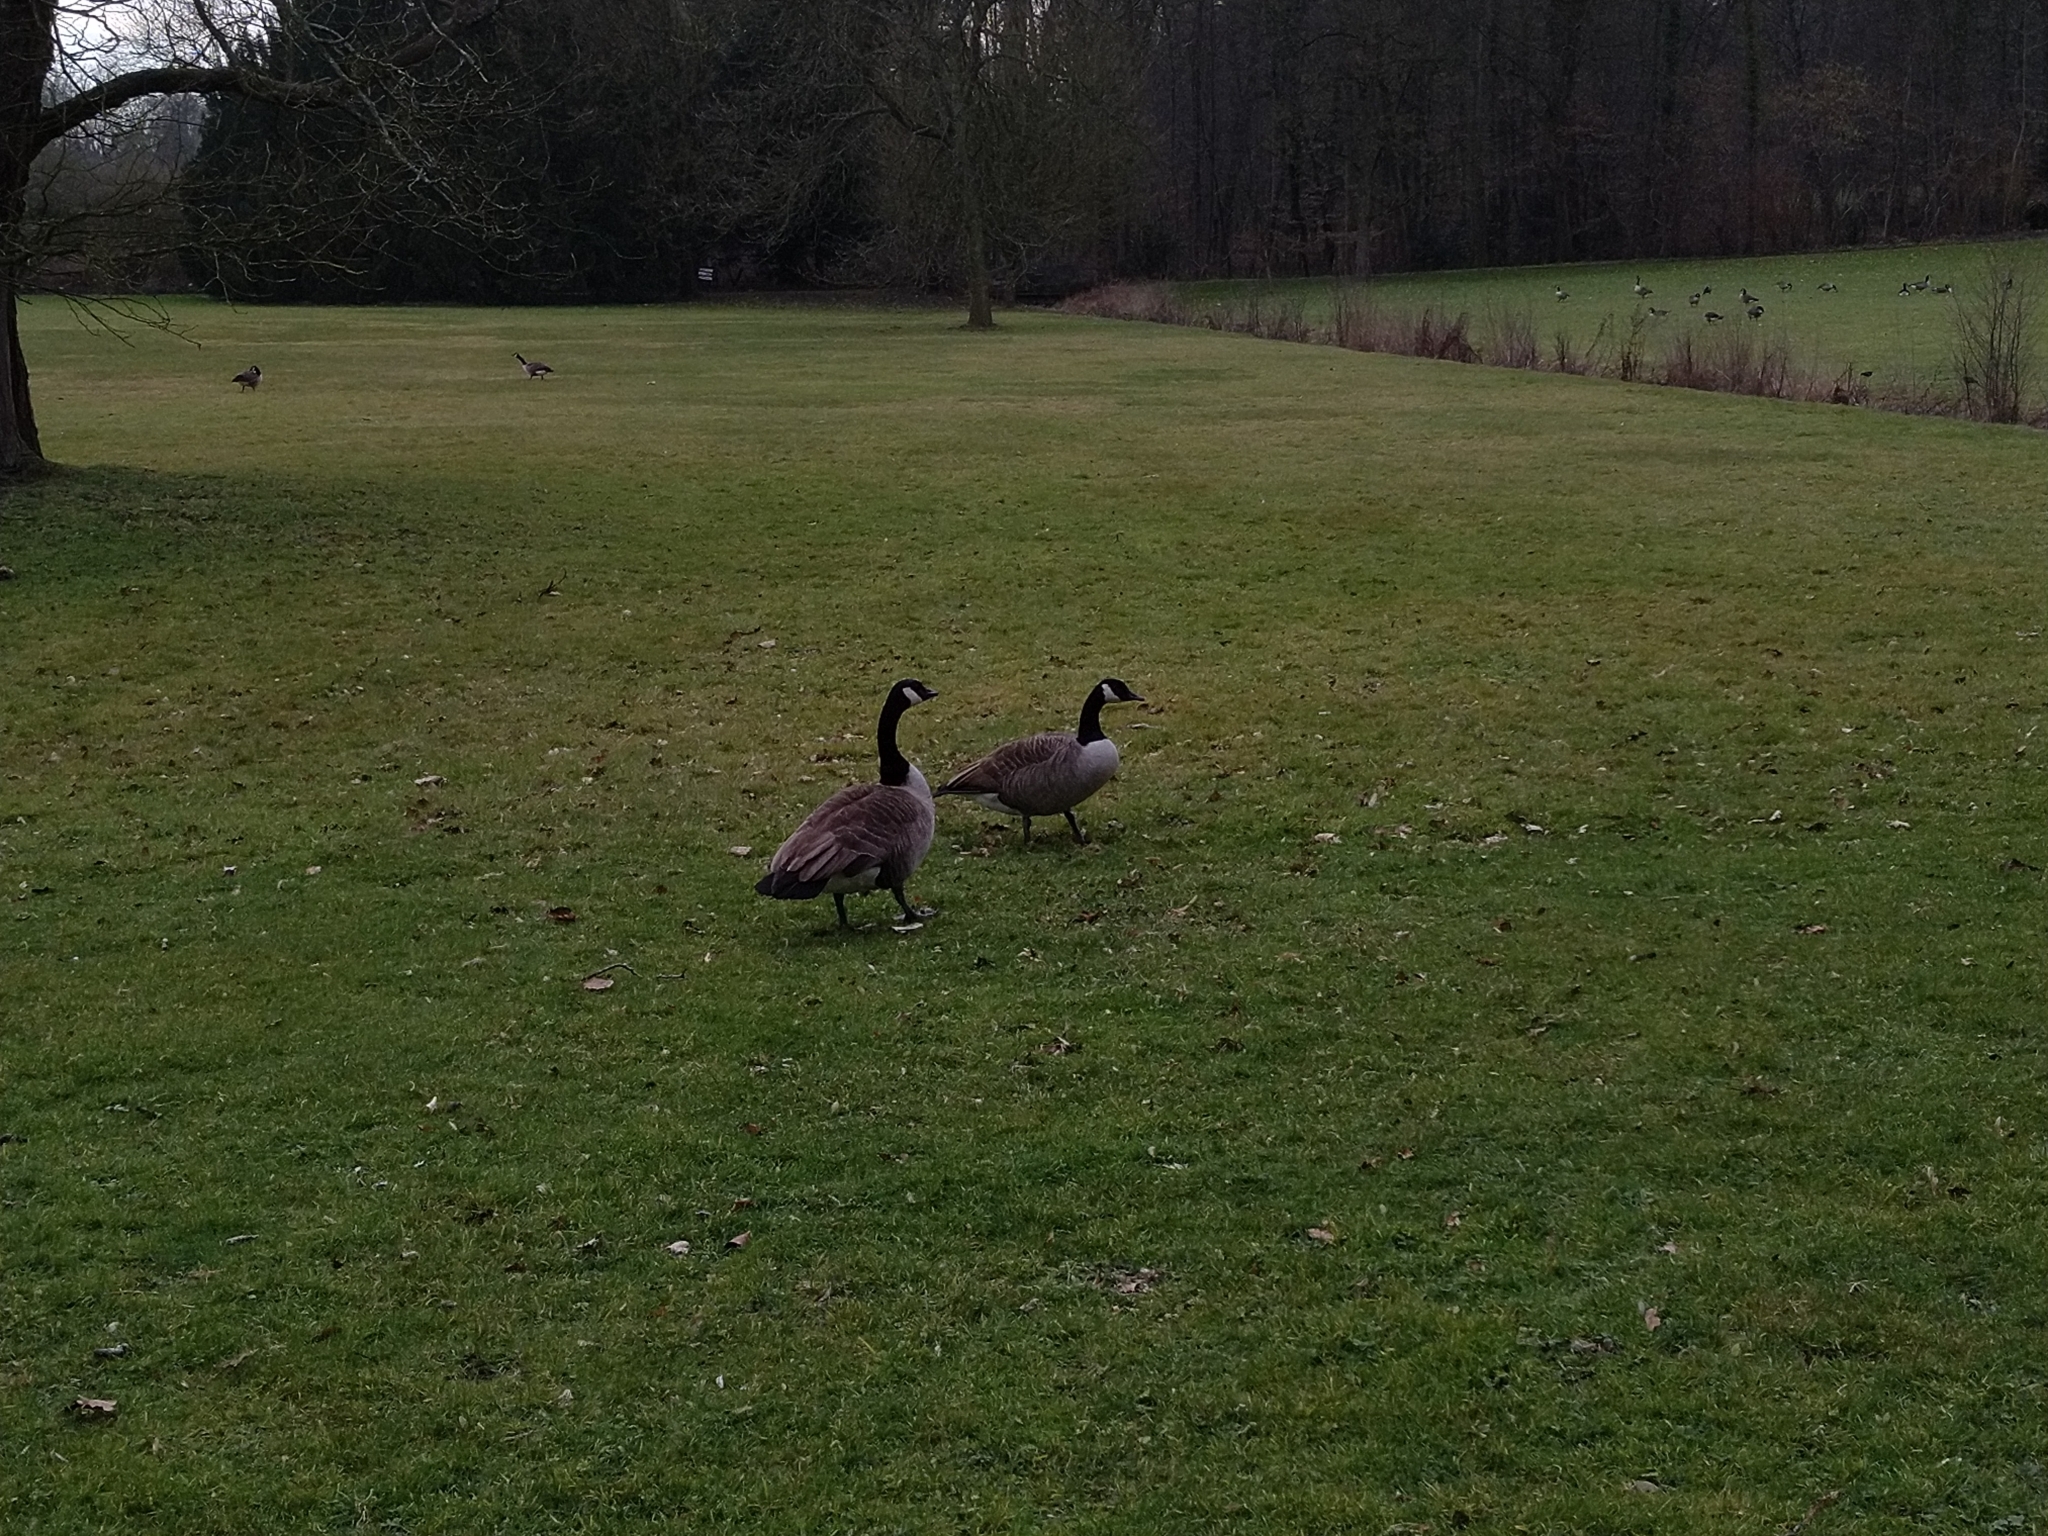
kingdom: Animalia
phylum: Chordata
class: Aves
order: Anseriformes
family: Anatidae
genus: Branta
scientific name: Branta canadensis
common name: Canada goose
